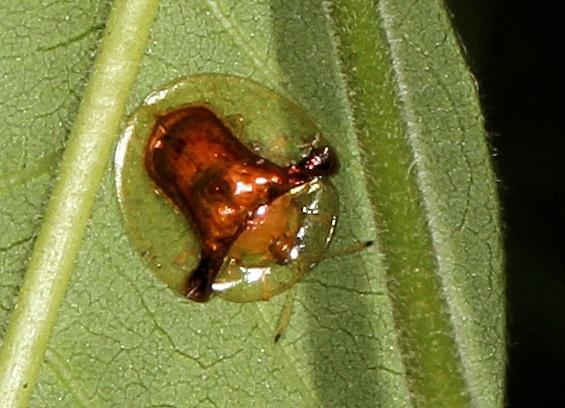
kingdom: Animalia
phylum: Arthropoda
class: Insecta
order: Coleoptera
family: Chrysomelidae
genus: Aspidimorpha
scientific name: Aspidimorpha submutata
